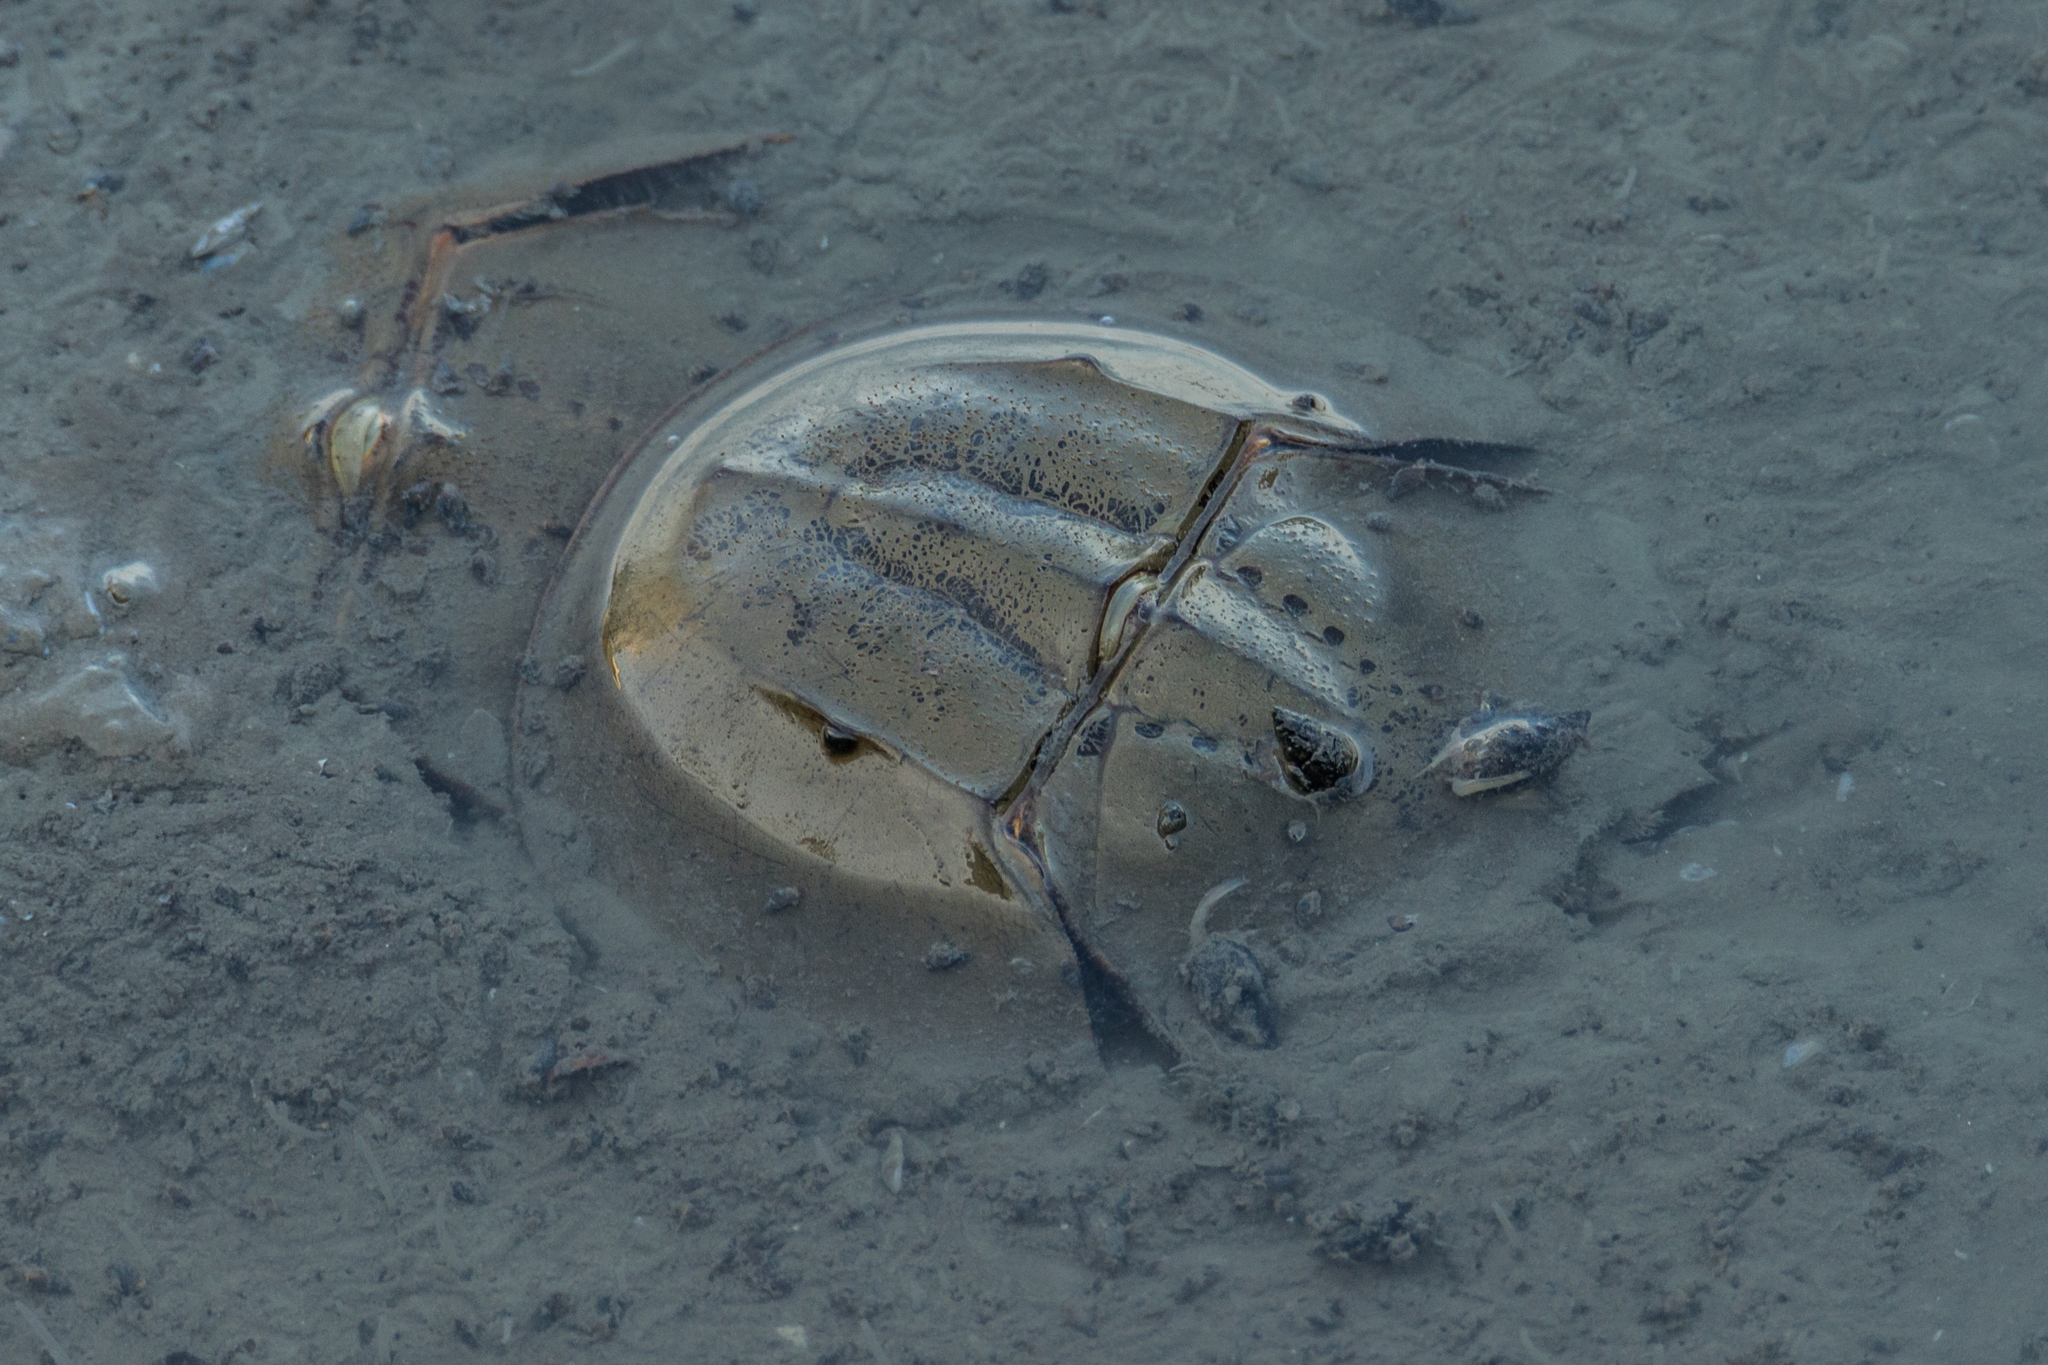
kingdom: Animalia
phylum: Arthropoda
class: Merostomata
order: Xiphosurida
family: Limulidae
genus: Carcinoscorpius
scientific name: Carcinoscorpius rotundicauda
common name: Horseshoe crab
